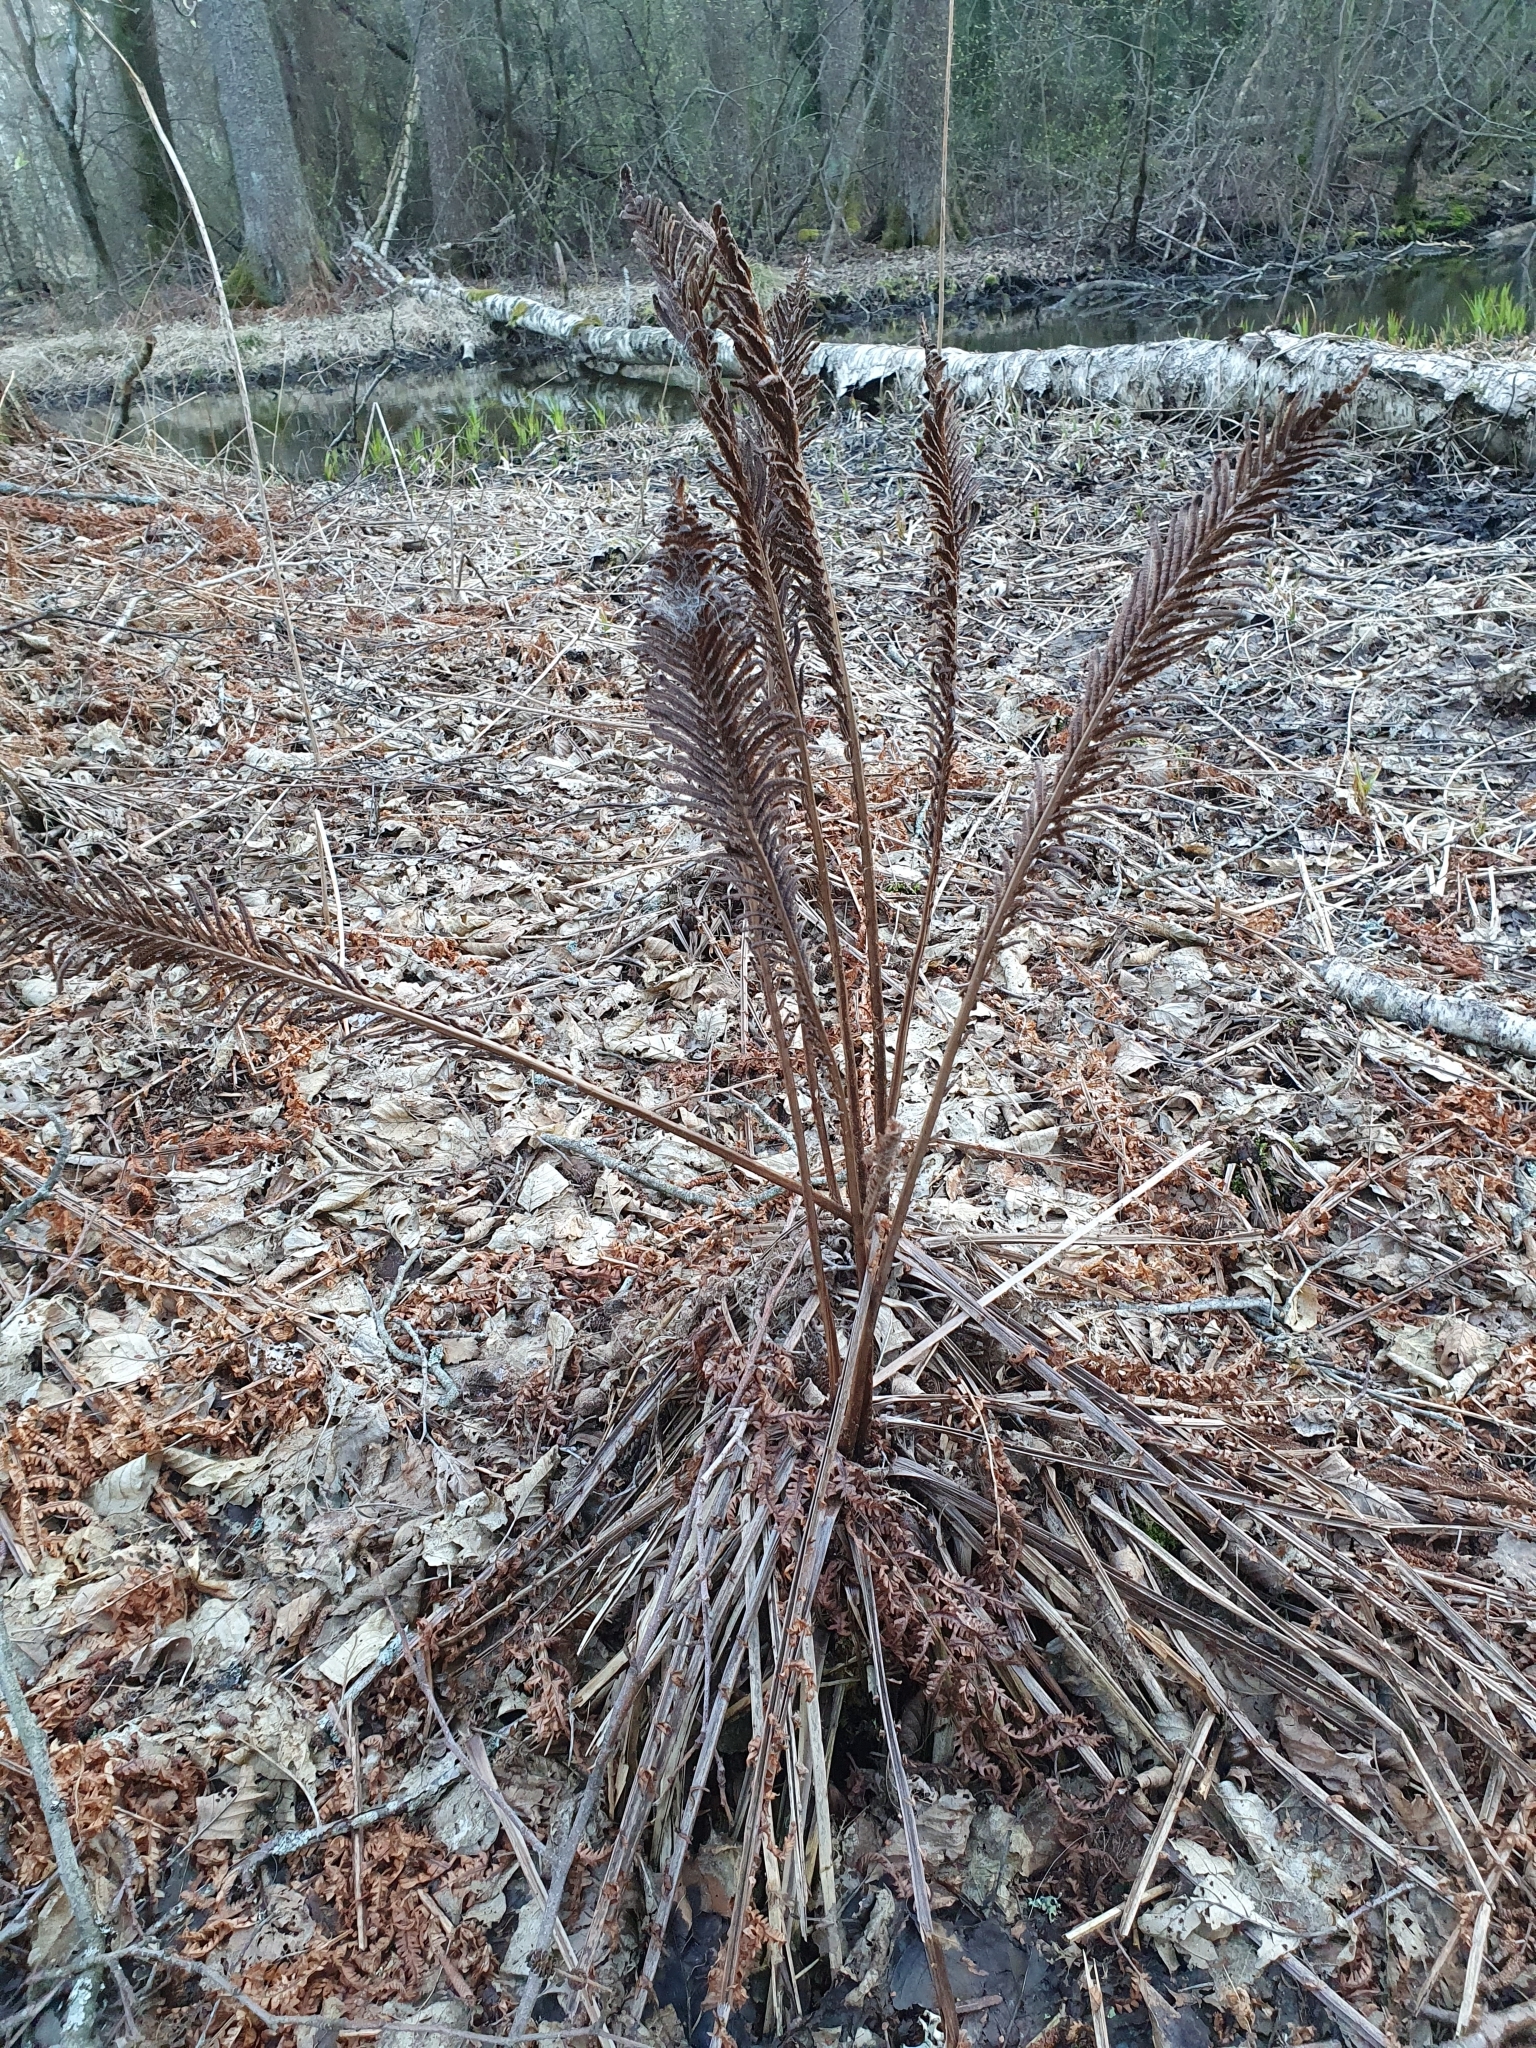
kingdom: Plantae
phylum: Tracheophyta
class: Polypodiopsida
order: Polypodiales
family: Onocleaceae
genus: Matteuccia
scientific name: Matteuccia struthiopteris
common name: Ostrich fern
